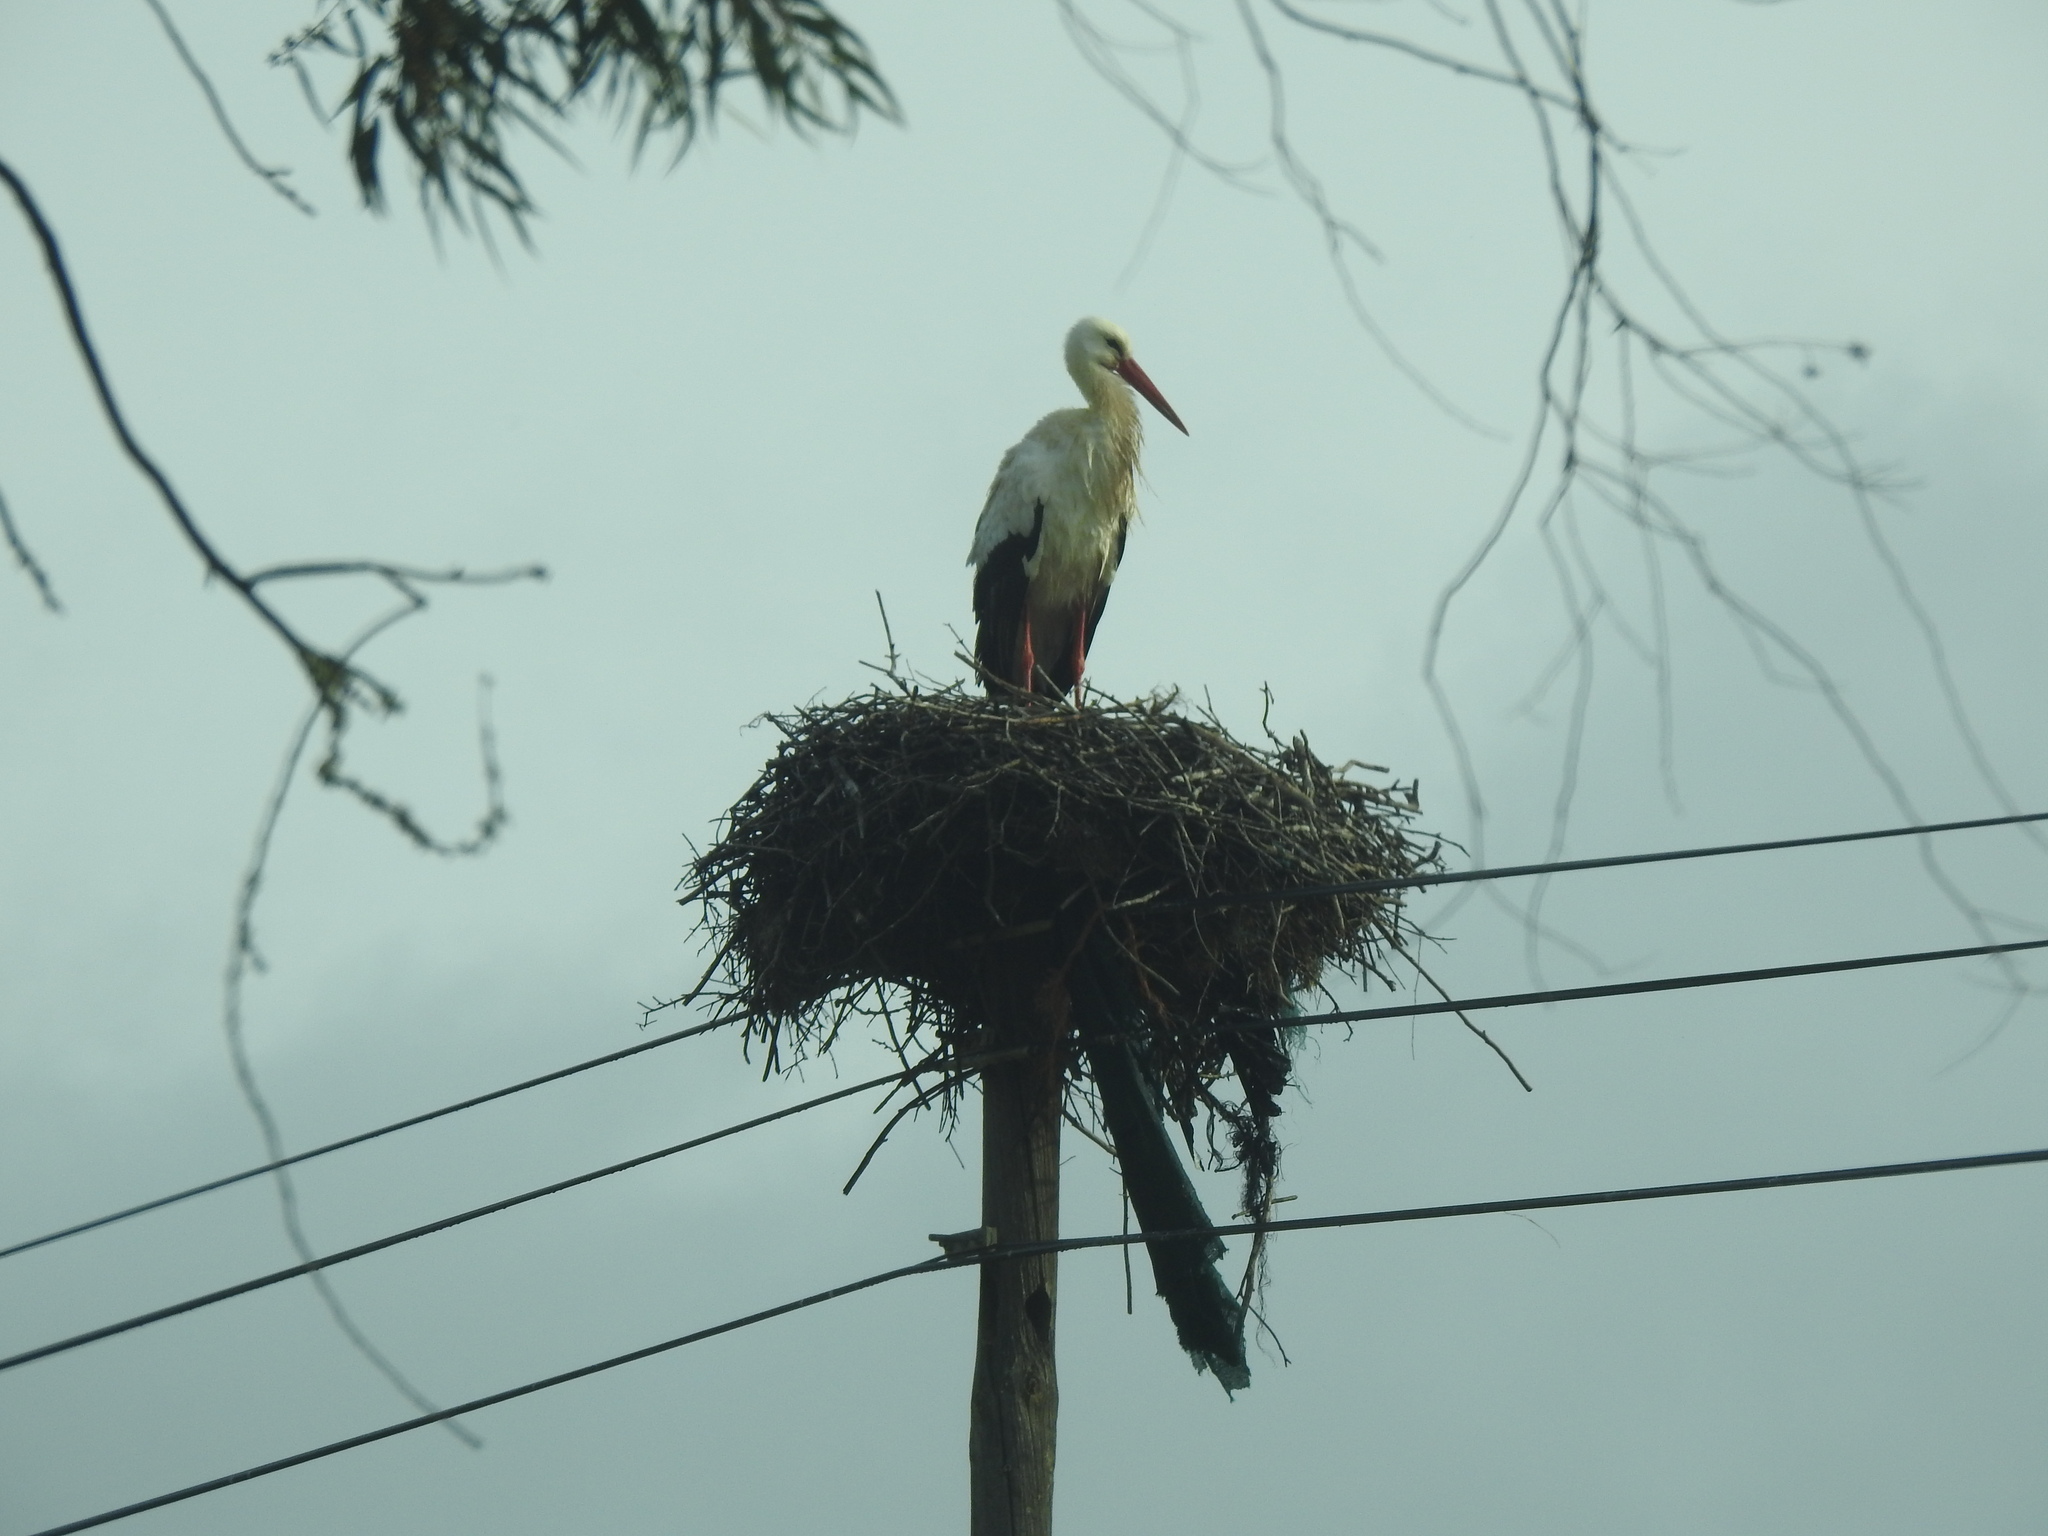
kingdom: Animalia
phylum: Chordata
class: Aves
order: Ciconiiformes
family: Ciconiidae
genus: Ciconia
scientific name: Ciconia ciconia
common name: White stork
